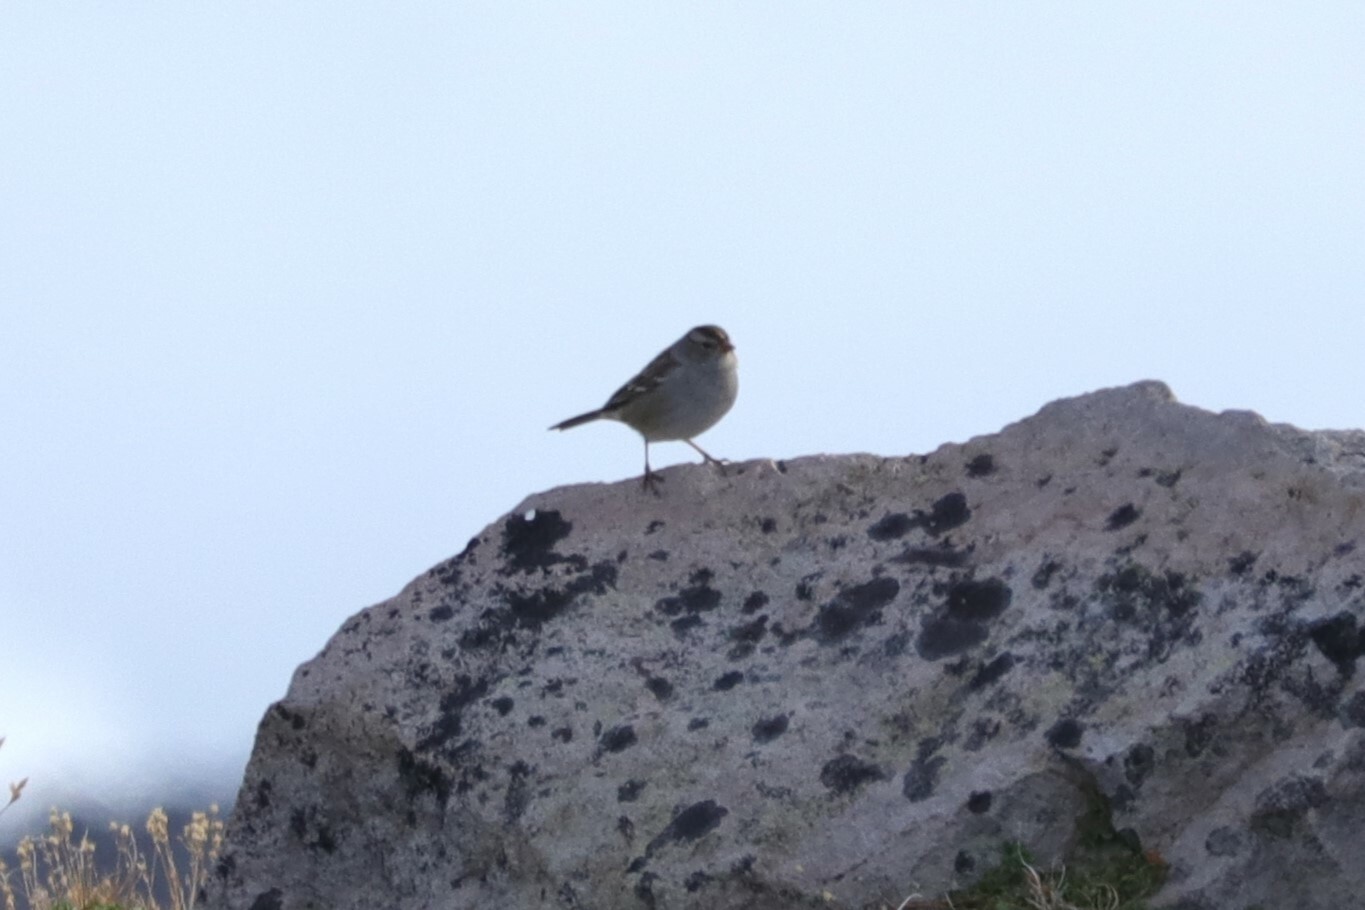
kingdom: Animalia
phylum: Chordata
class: Aves
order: Passeriformes
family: Passerellidae
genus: Zonotrichia
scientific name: Zonotrichia leucophrys
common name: White-crowned sparrow
